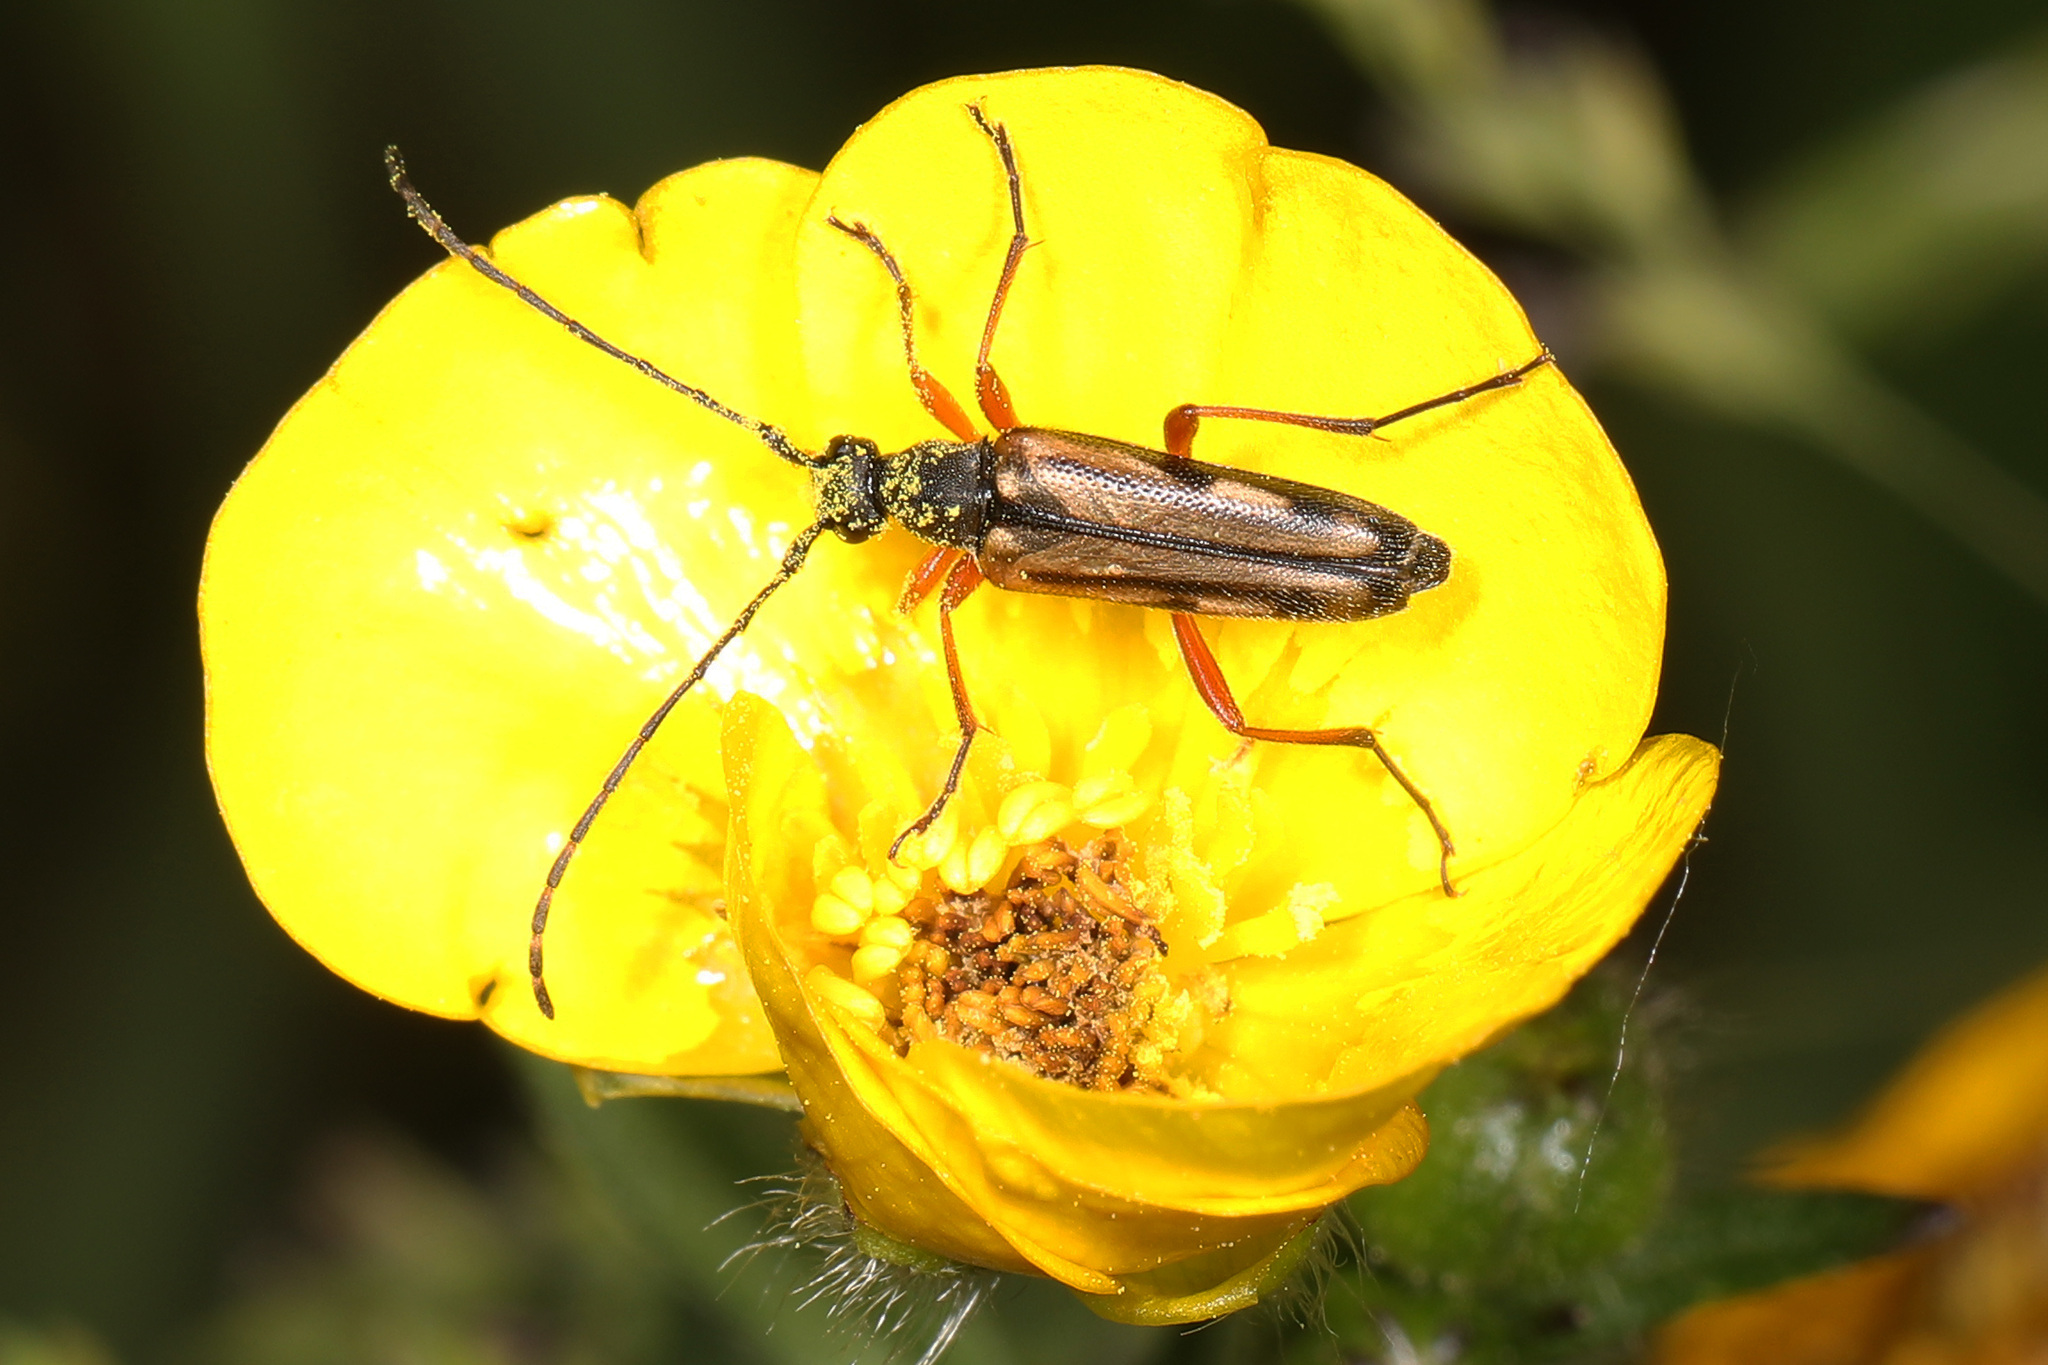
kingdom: Animalia
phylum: Arthropoda
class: Insecta
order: Coleoptera
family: Cerambycidae
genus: Analeptura
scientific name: Analeptura lineola
